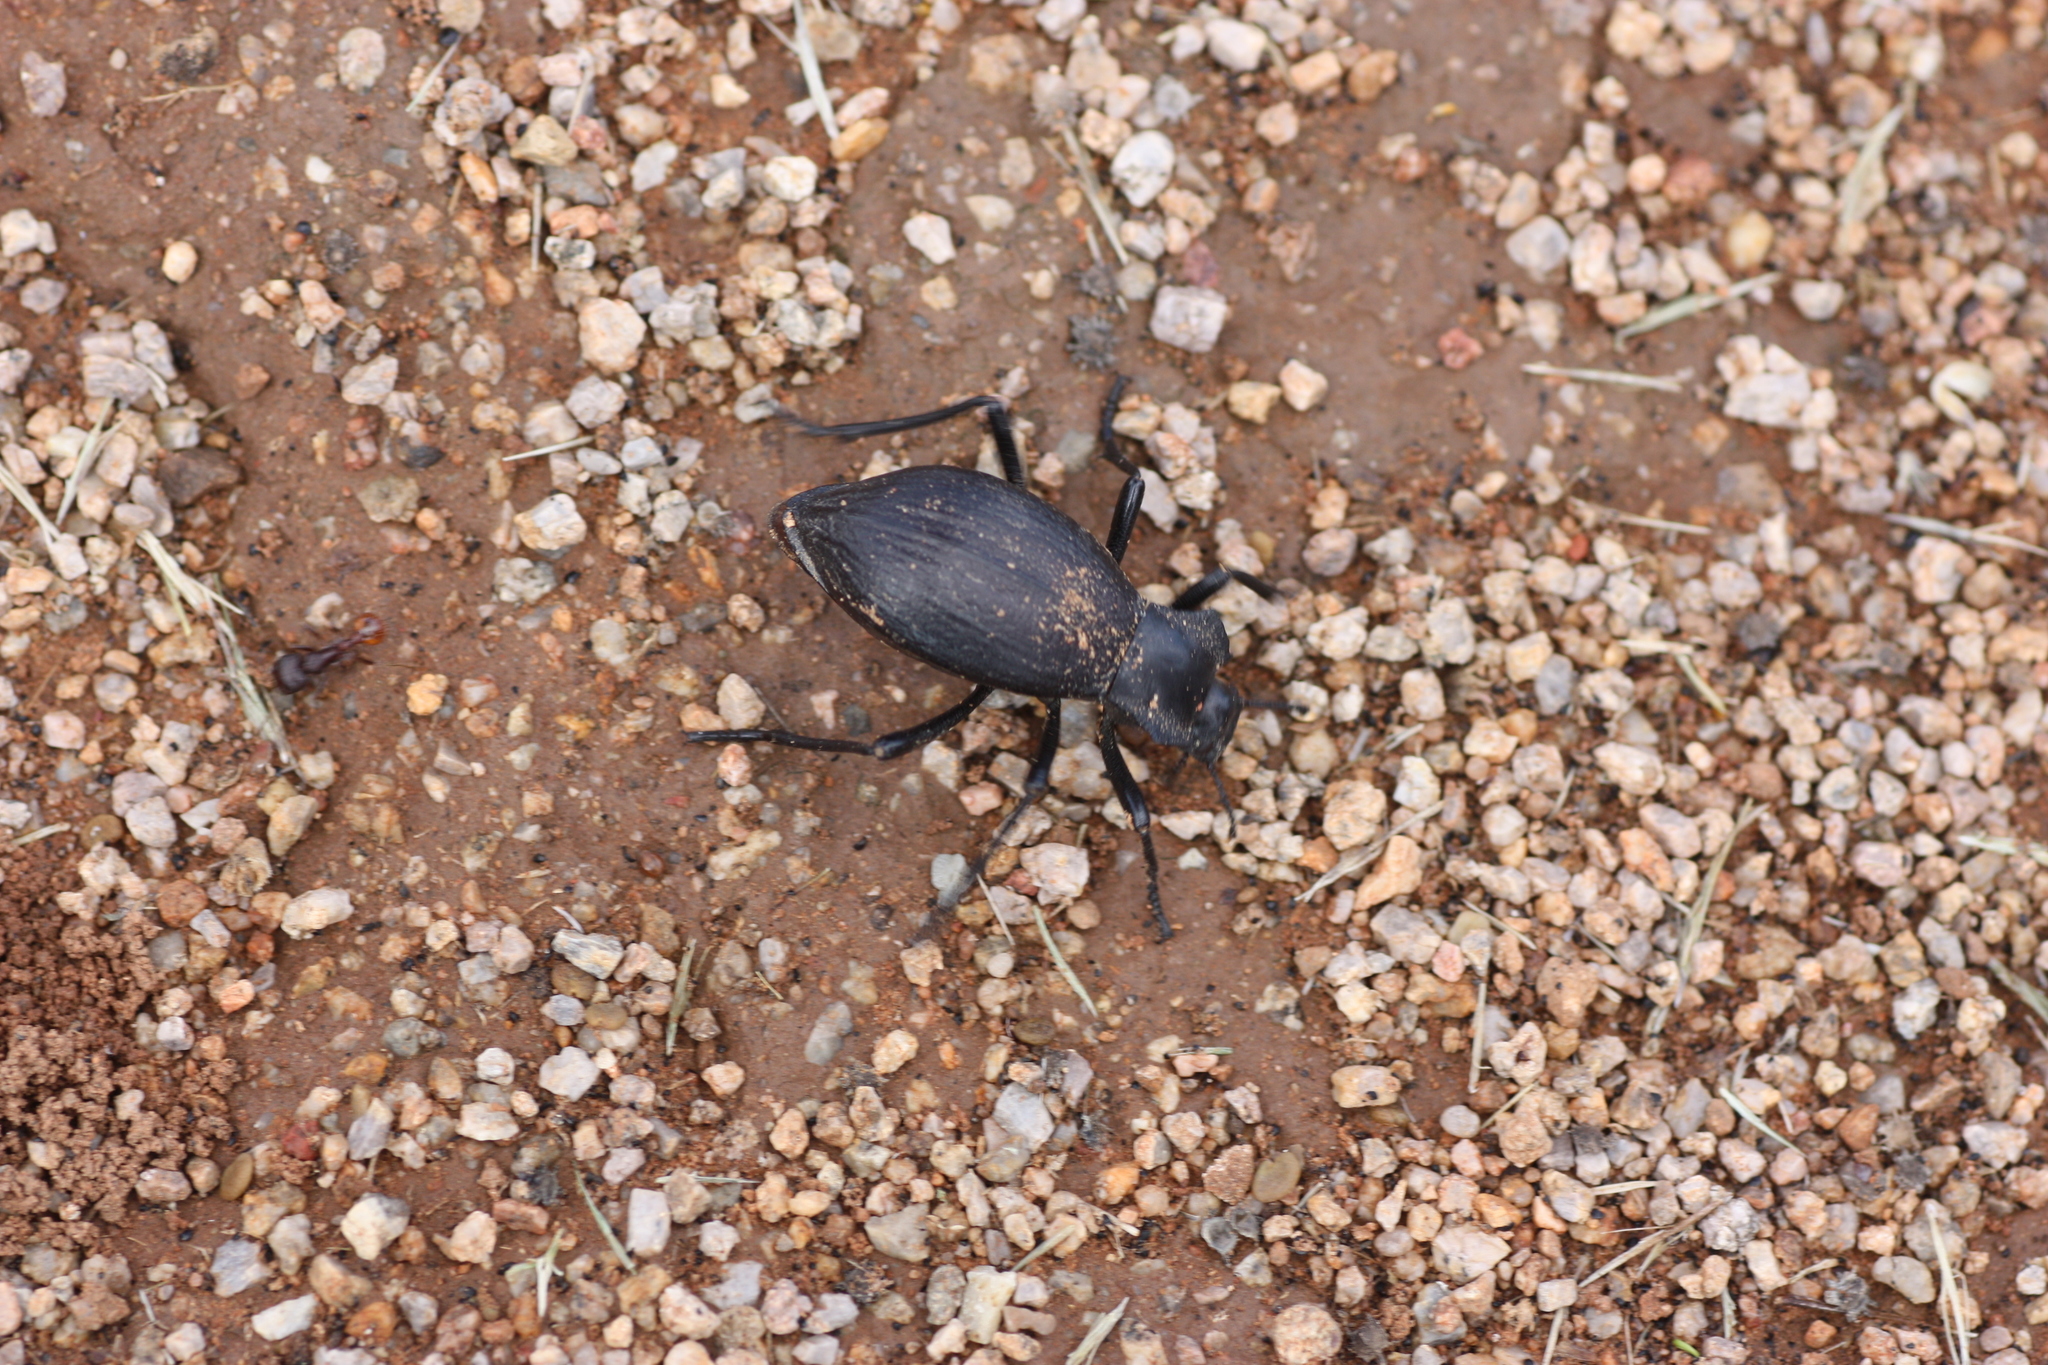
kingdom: Animalia
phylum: Arthropoda
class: Insecta
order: Coleoptera
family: Tenebrionidae
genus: Philolithus
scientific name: Philolithus elatus
